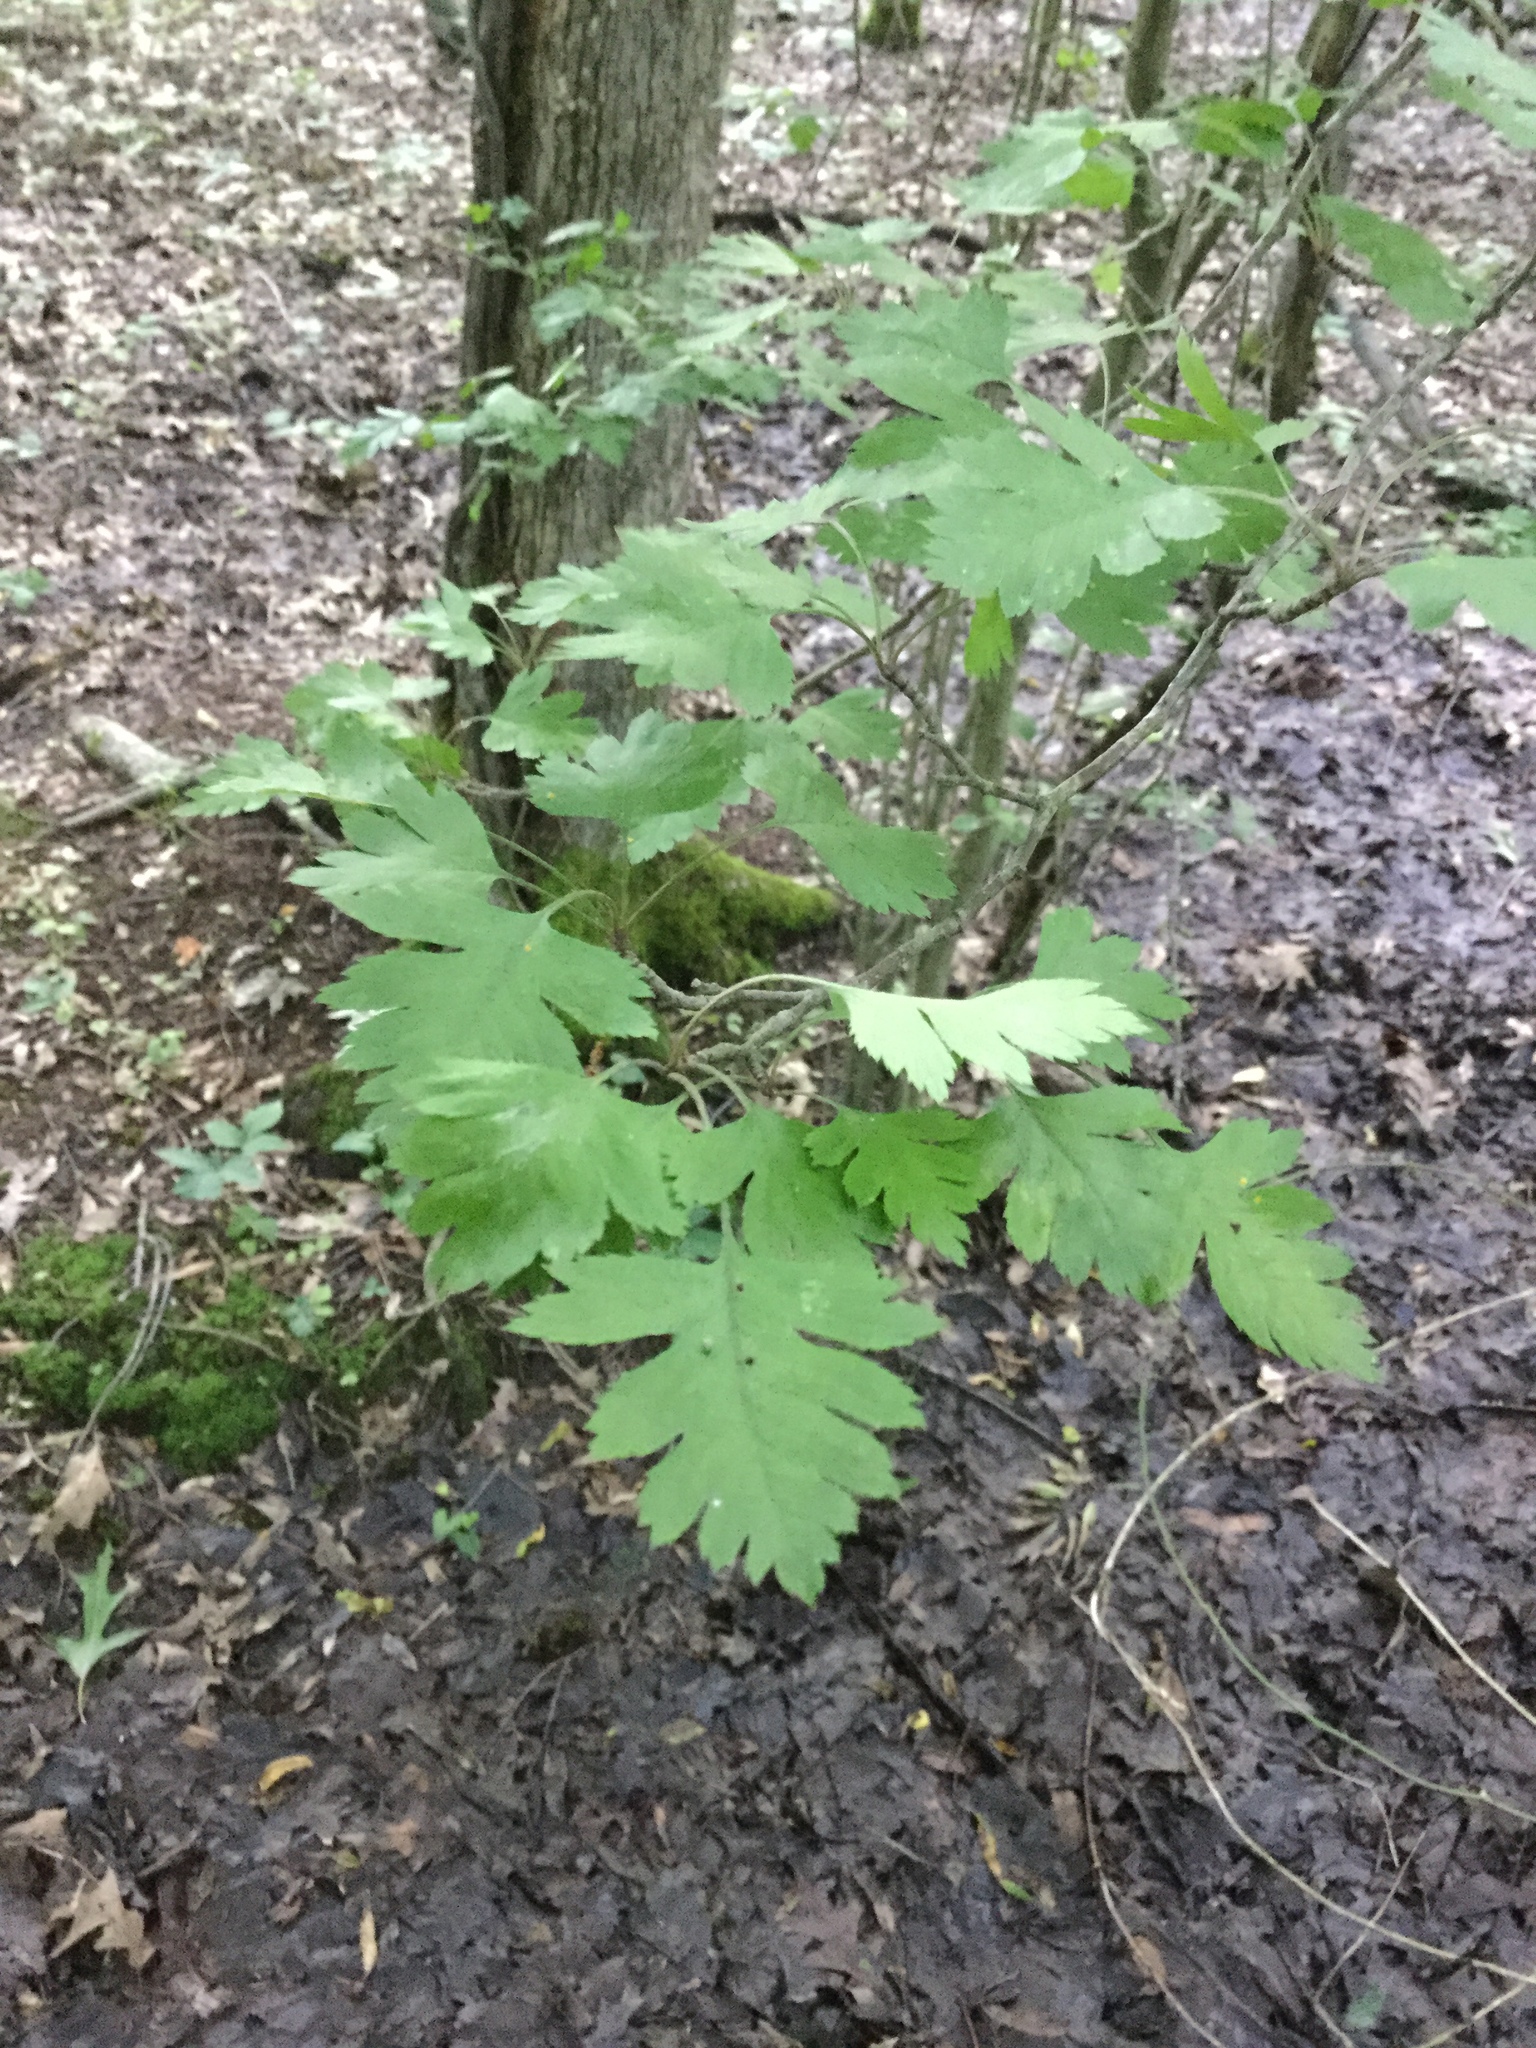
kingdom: Plantae
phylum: Tracheophyta
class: Magnoliopsida
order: Rosales
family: Rosaceae
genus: Crataegus
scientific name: Crataegus marshallii
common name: Parsley-hawthorn
